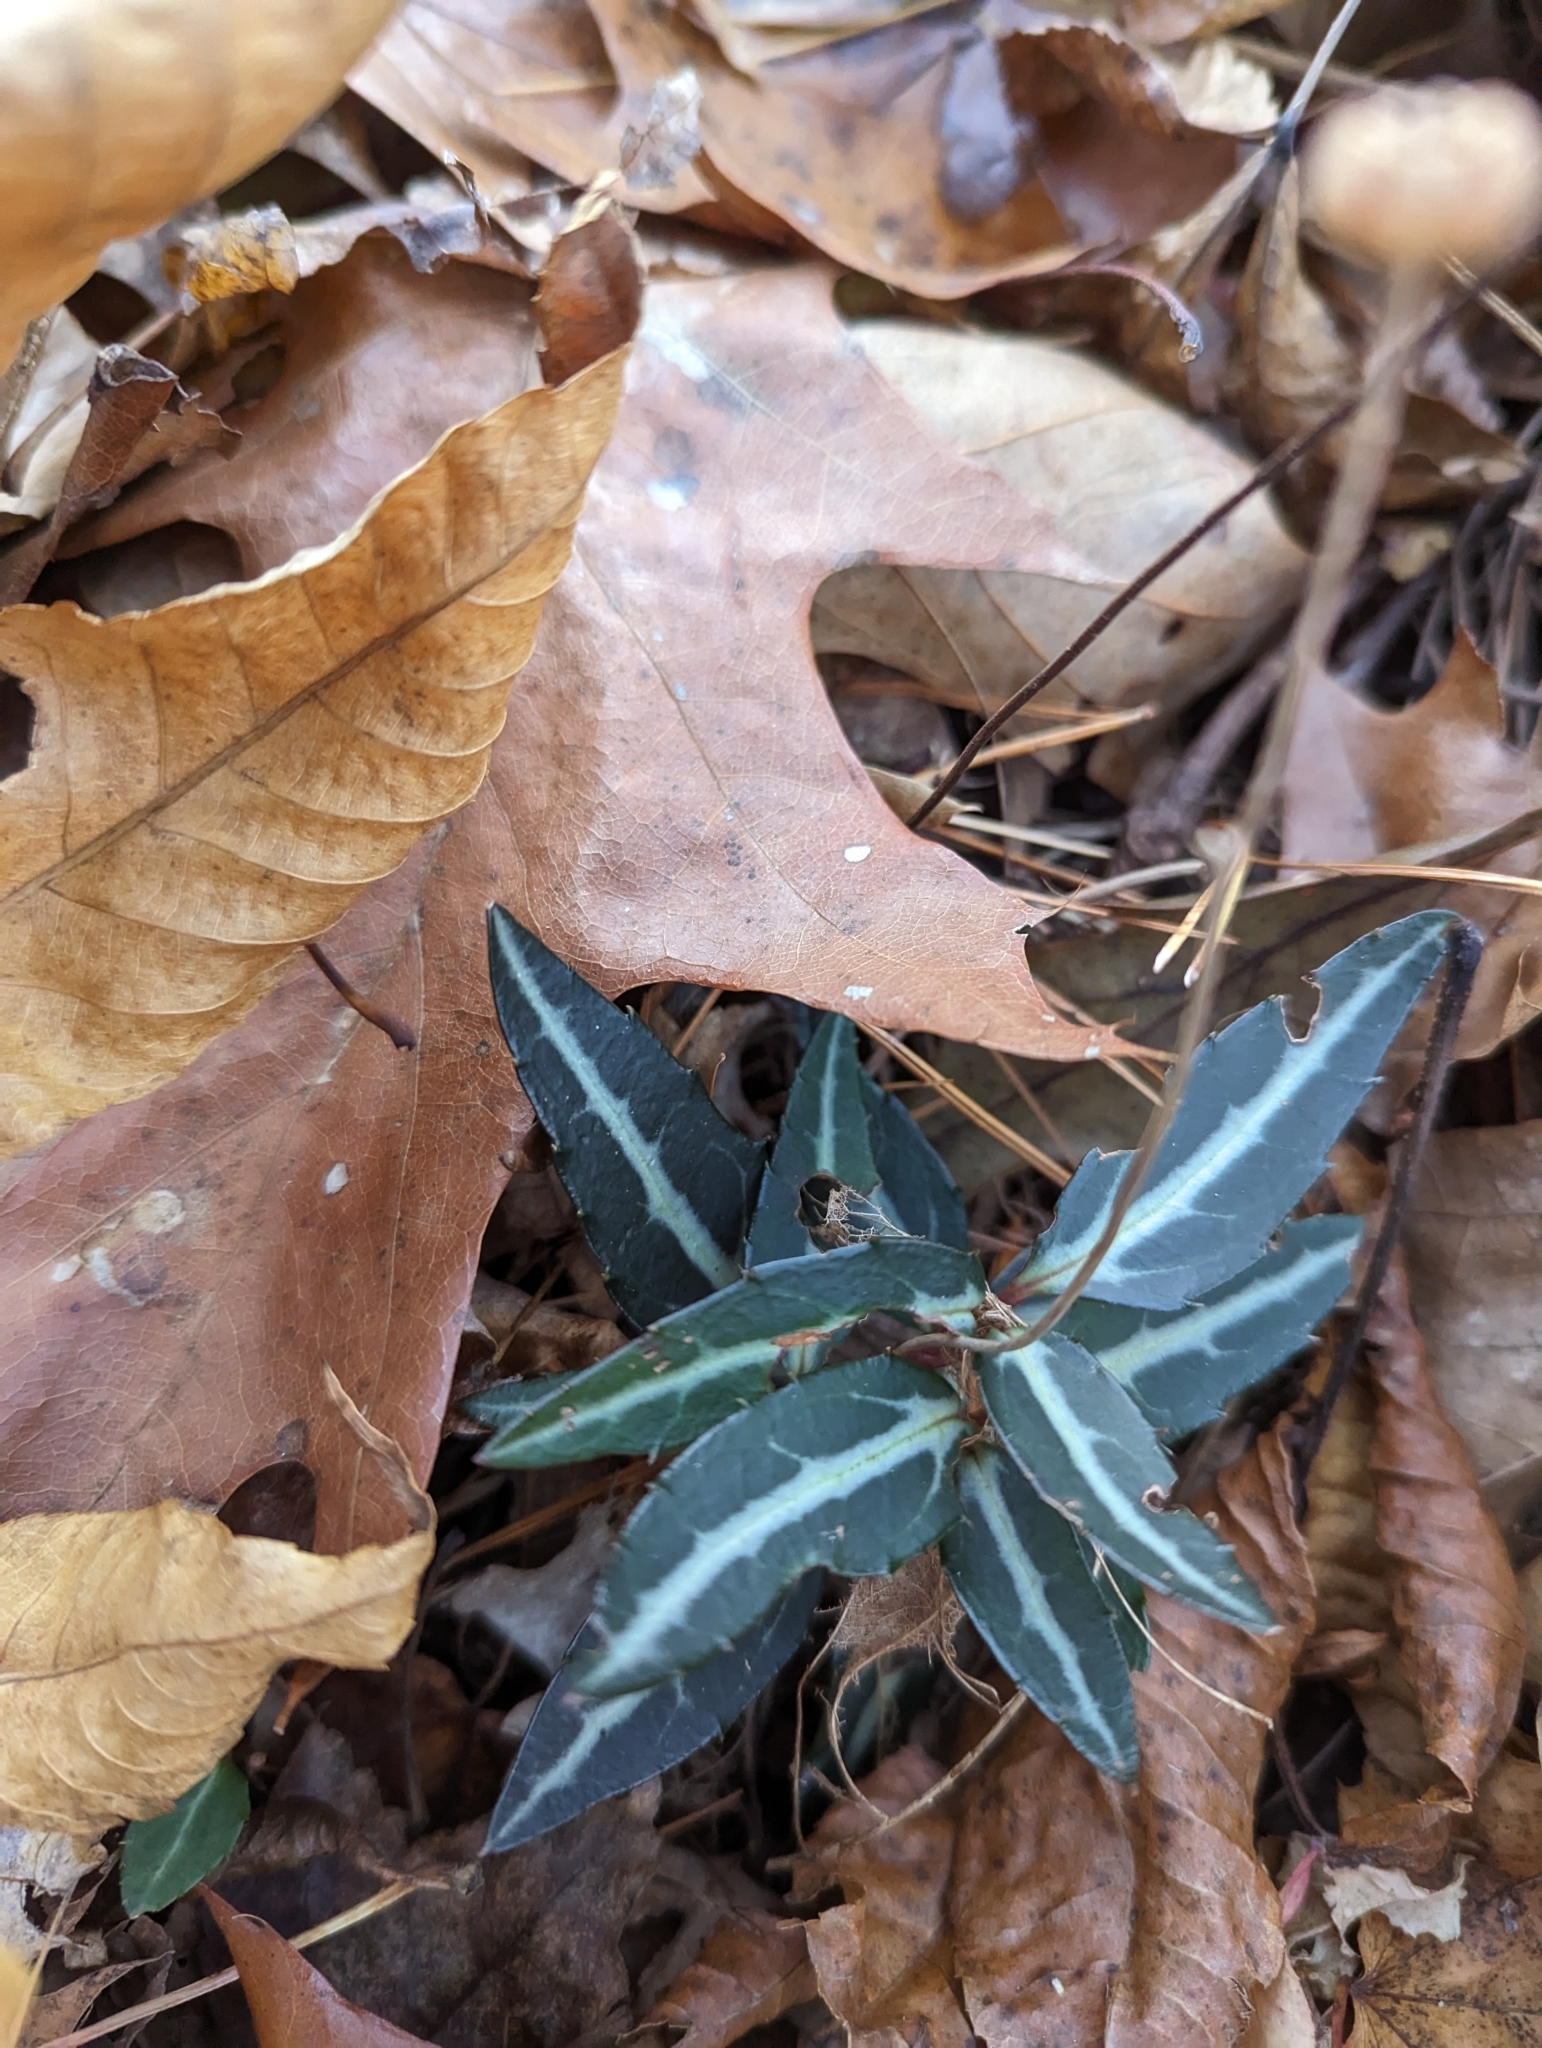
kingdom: Plantae
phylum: Tracheophyta
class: Magnoliopsida
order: Ericales
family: Ericaceae
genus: Chimaphila
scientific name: Chimaphila maculata
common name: Spotted pipsissewa
